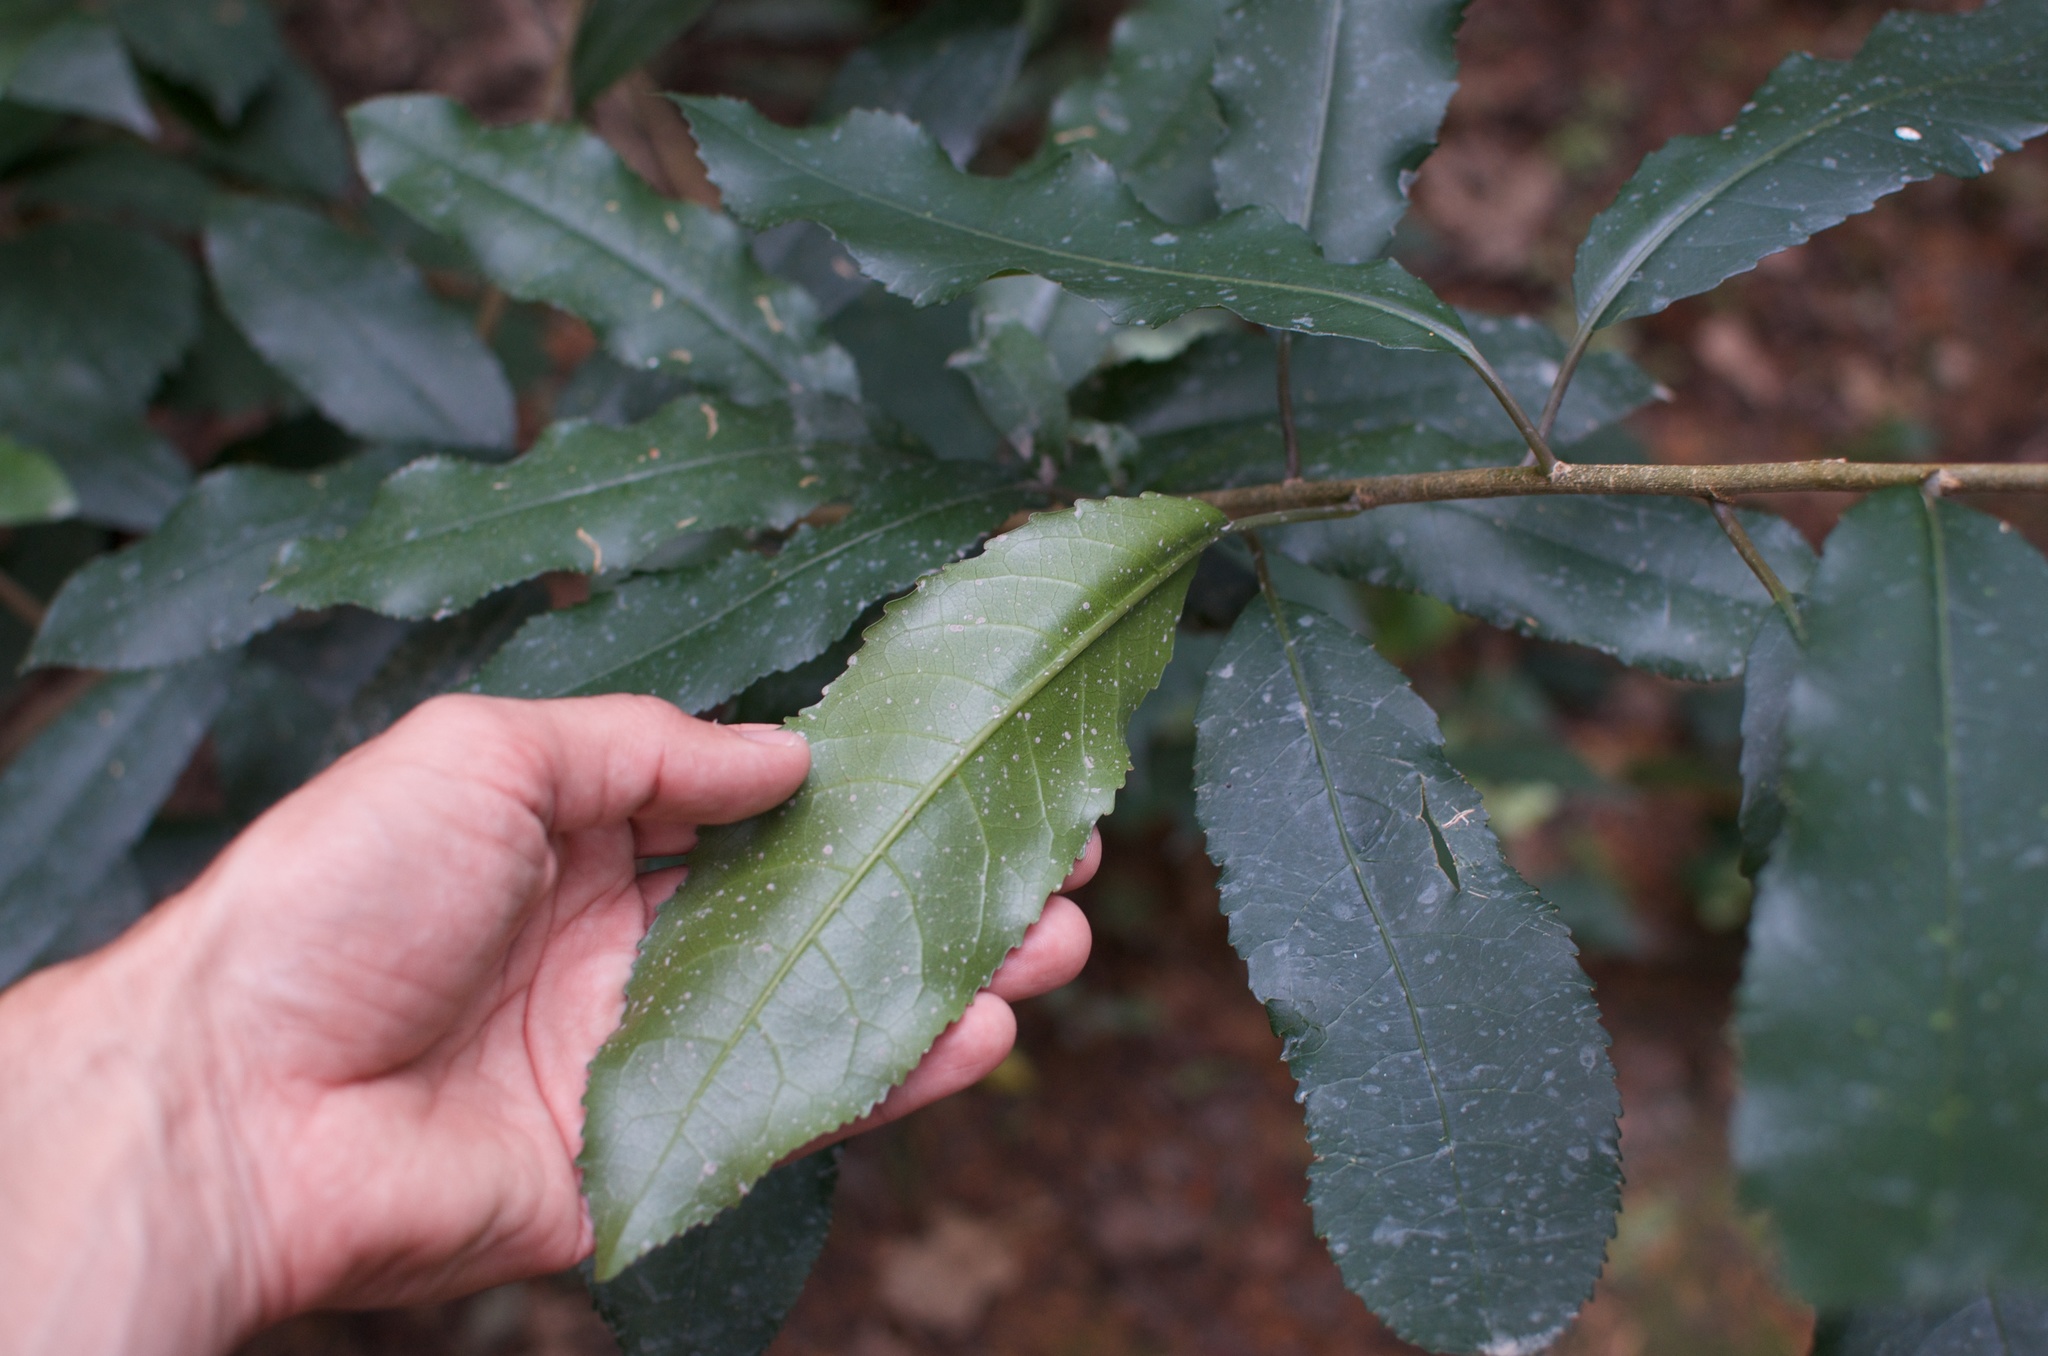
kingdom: Plantae
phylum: Tracheophyta
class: Magnoliopsida
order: Malpighiales
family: Violaceae
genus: Melicytus
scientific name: Melicytus ramiflorus
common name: Mahoe
